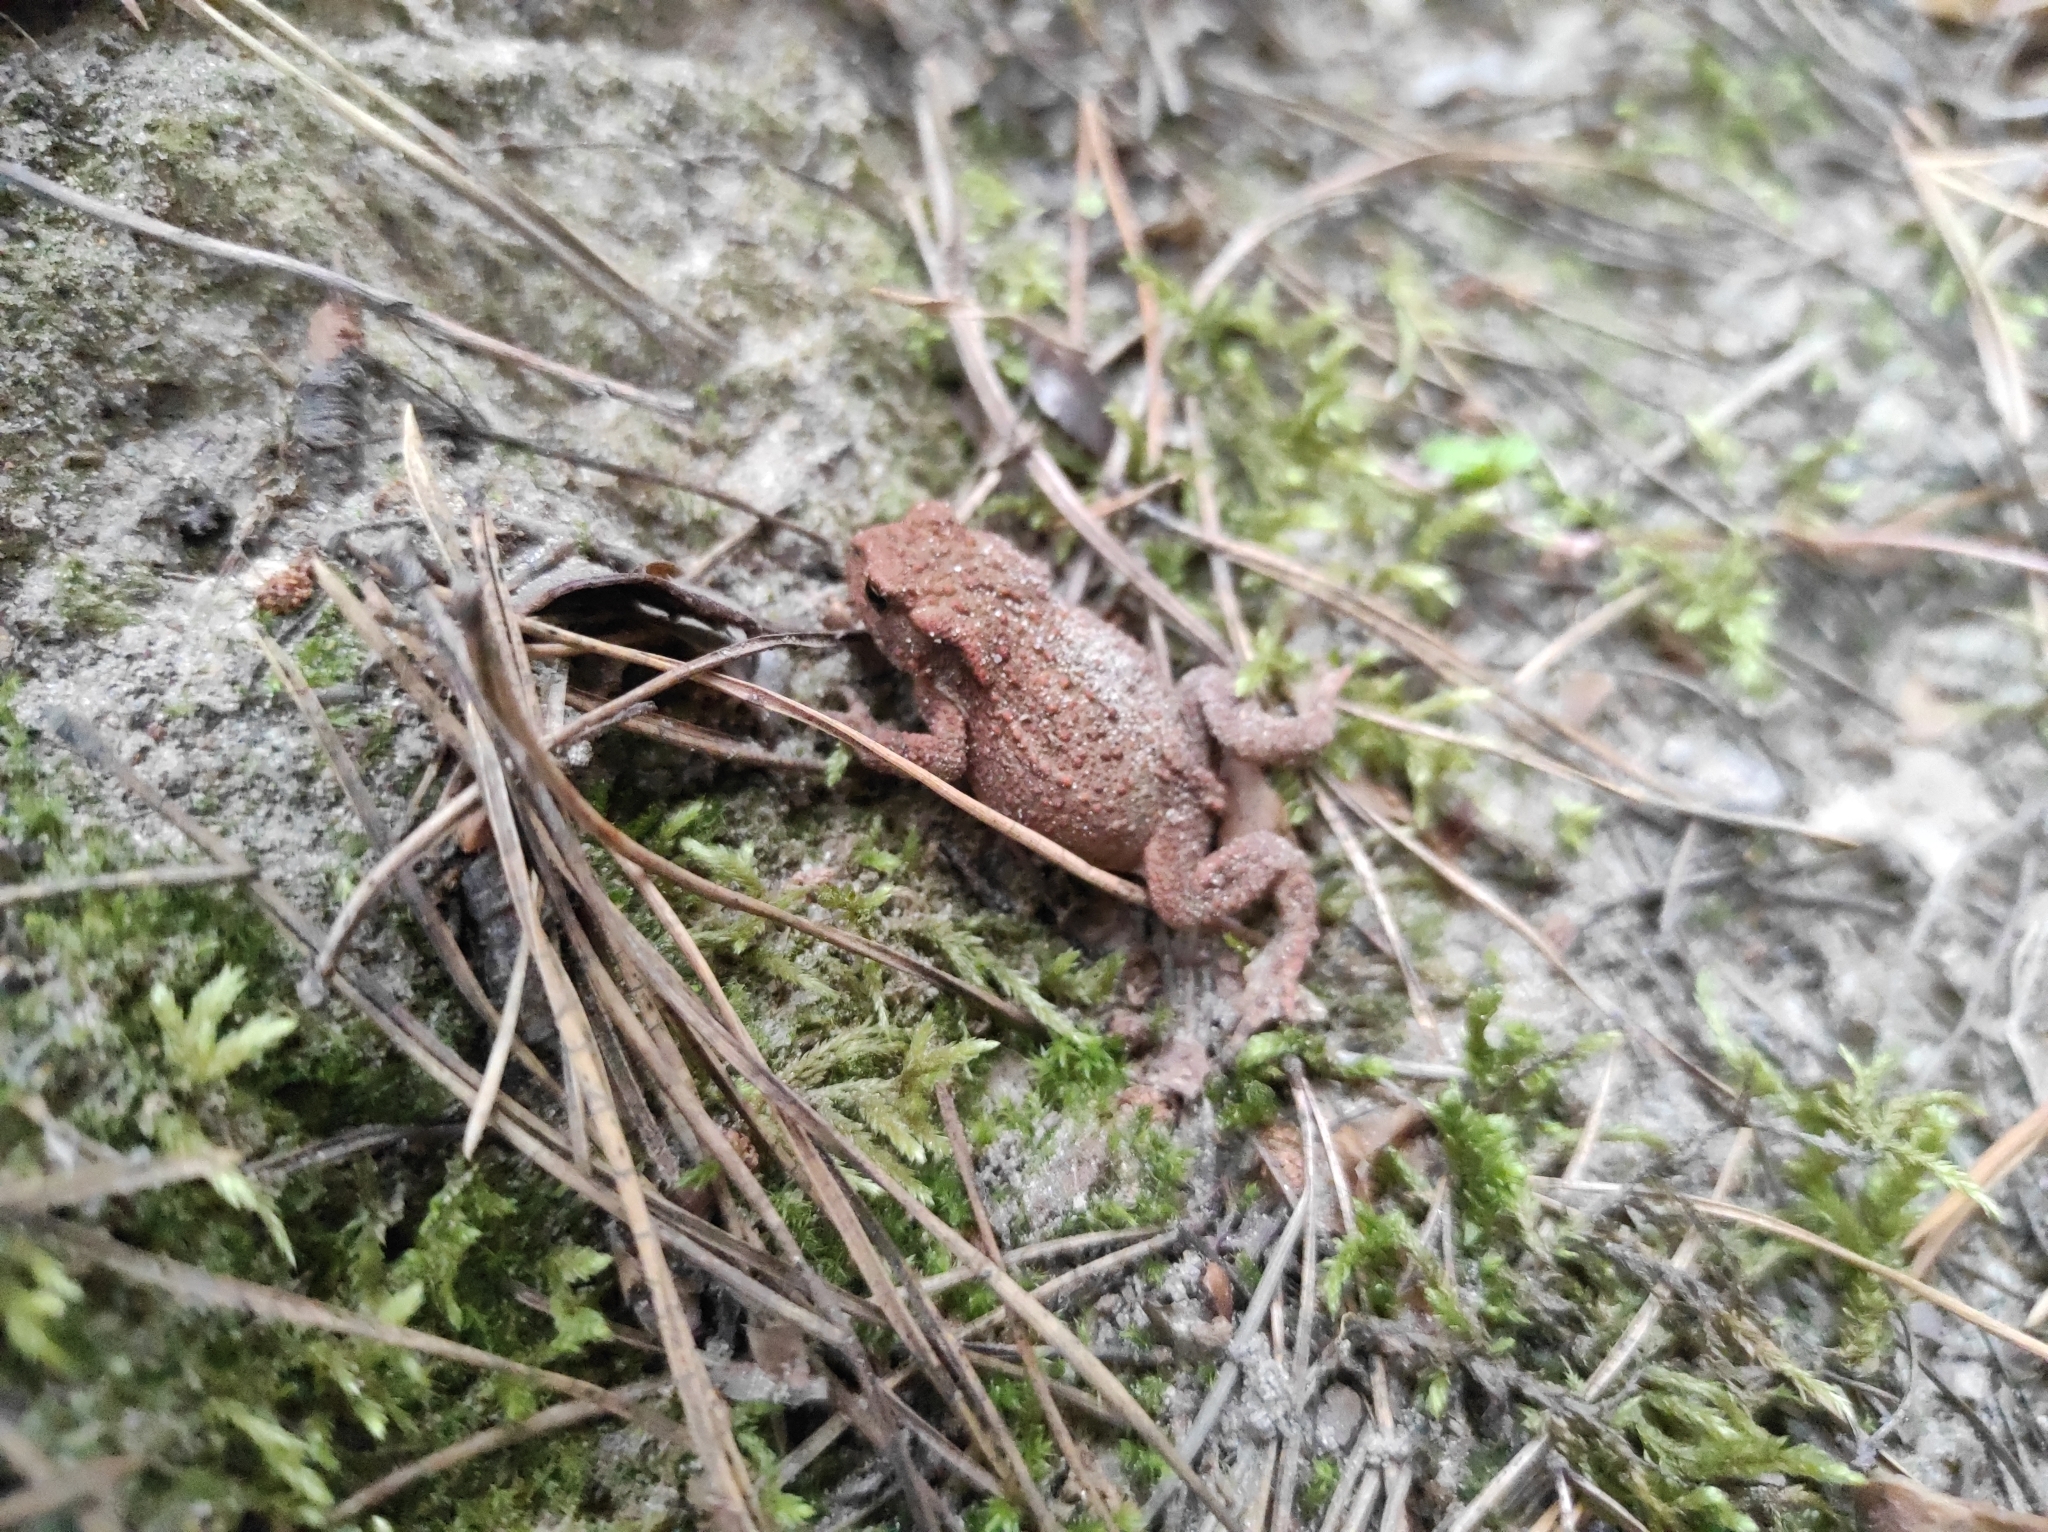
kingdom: Animalia
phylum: Chordata
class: Amphibia
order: Anura
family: Bufonidae
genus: Bufo
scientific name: Bufo bufo
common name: Common toad
